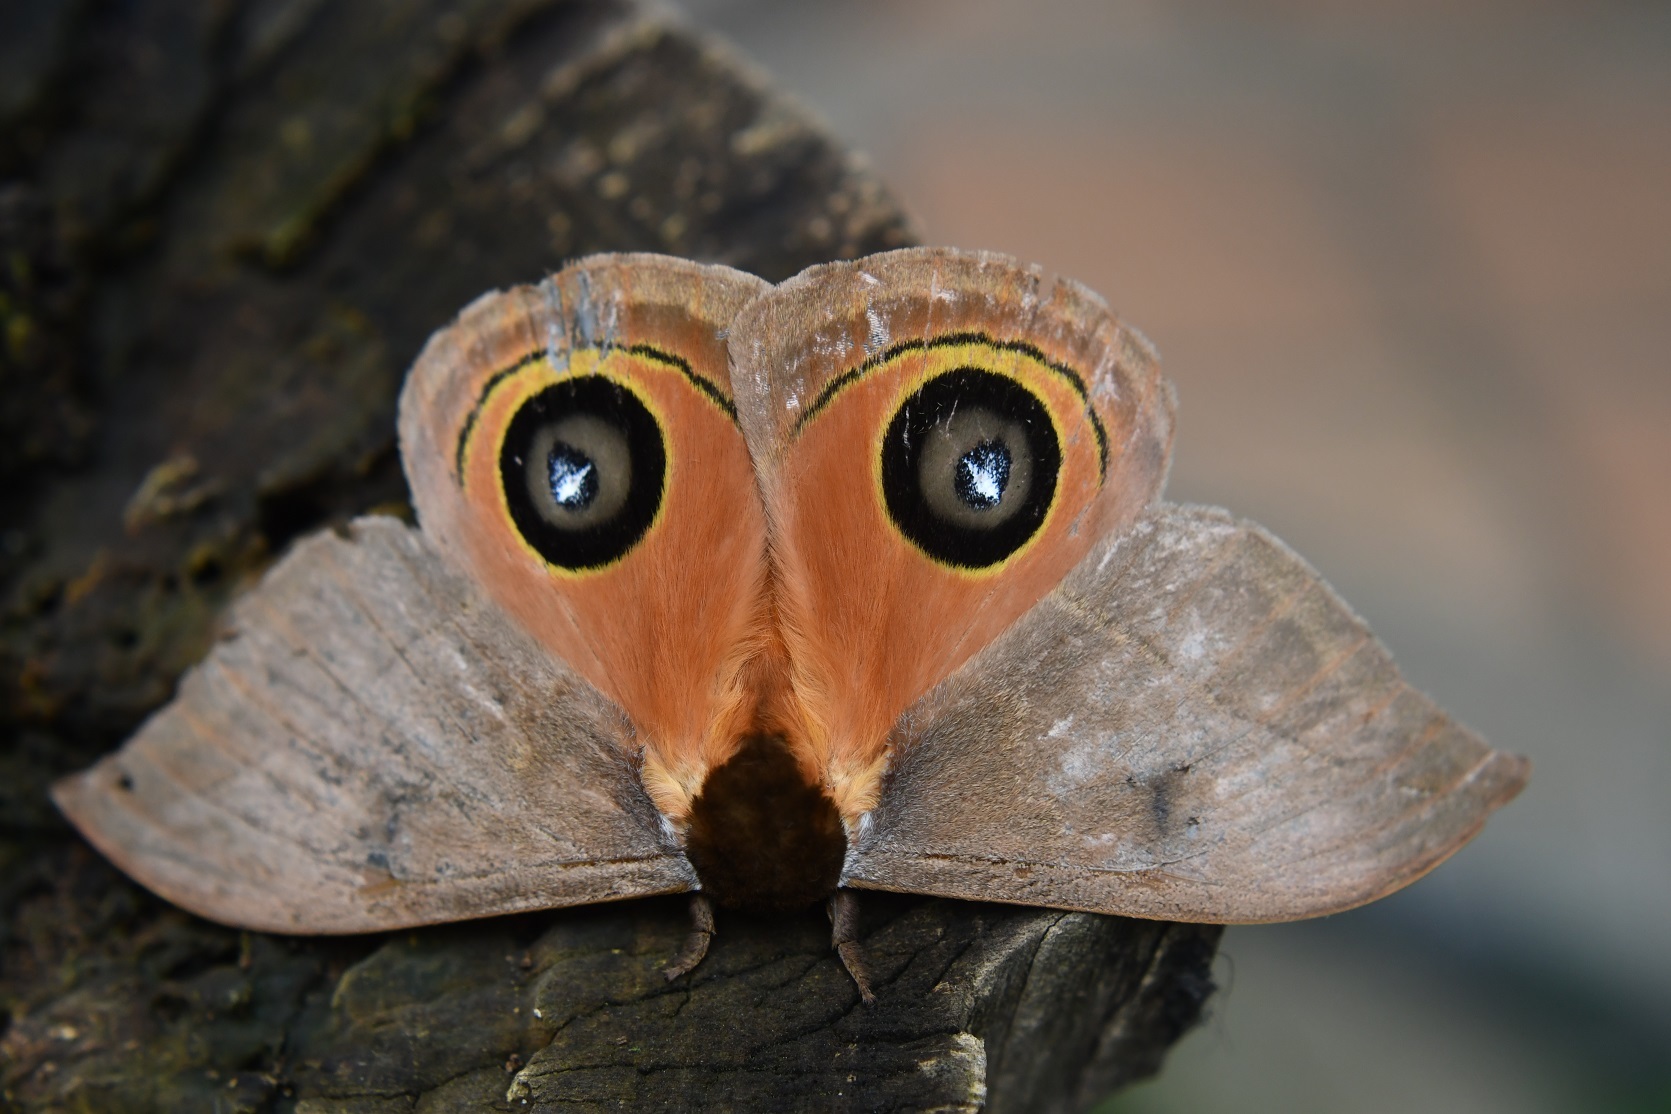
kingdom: Animalia
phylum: Arthropoda
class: Insecta
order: Lepidoptera
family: Saturniidae
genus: Automeris
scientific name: Automeris cecrops
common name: Cecrops eyed silkmoth
